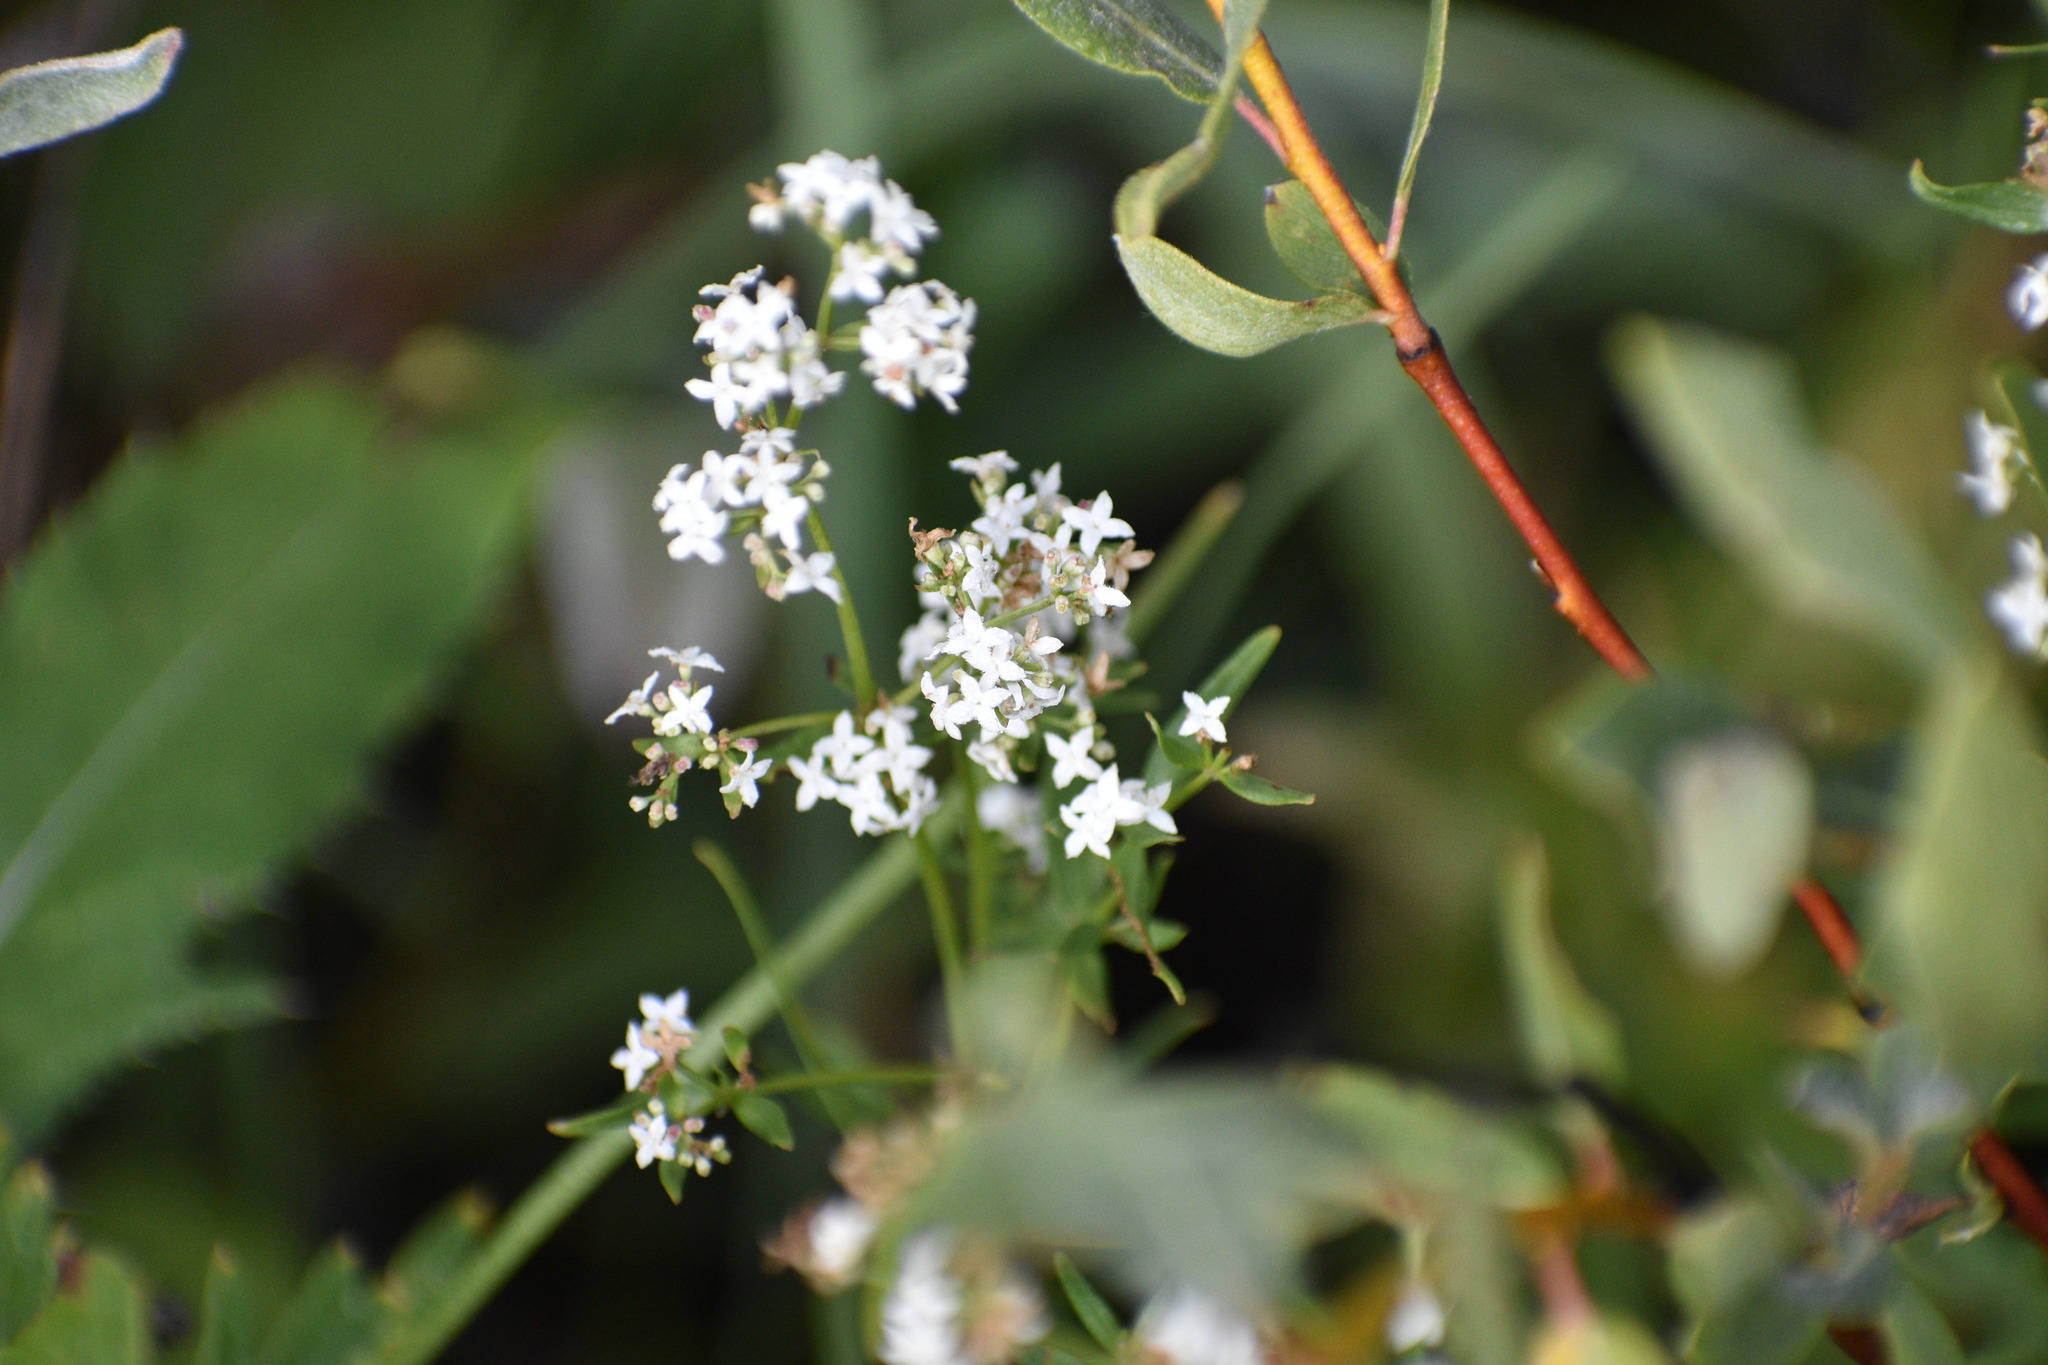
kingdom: Plantae
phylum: Tracheophyta
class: Magnoliopsida
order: Gentianales
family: Rubiaceae
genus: Galium
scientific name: Galium boreale
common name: Northern bedstraw
